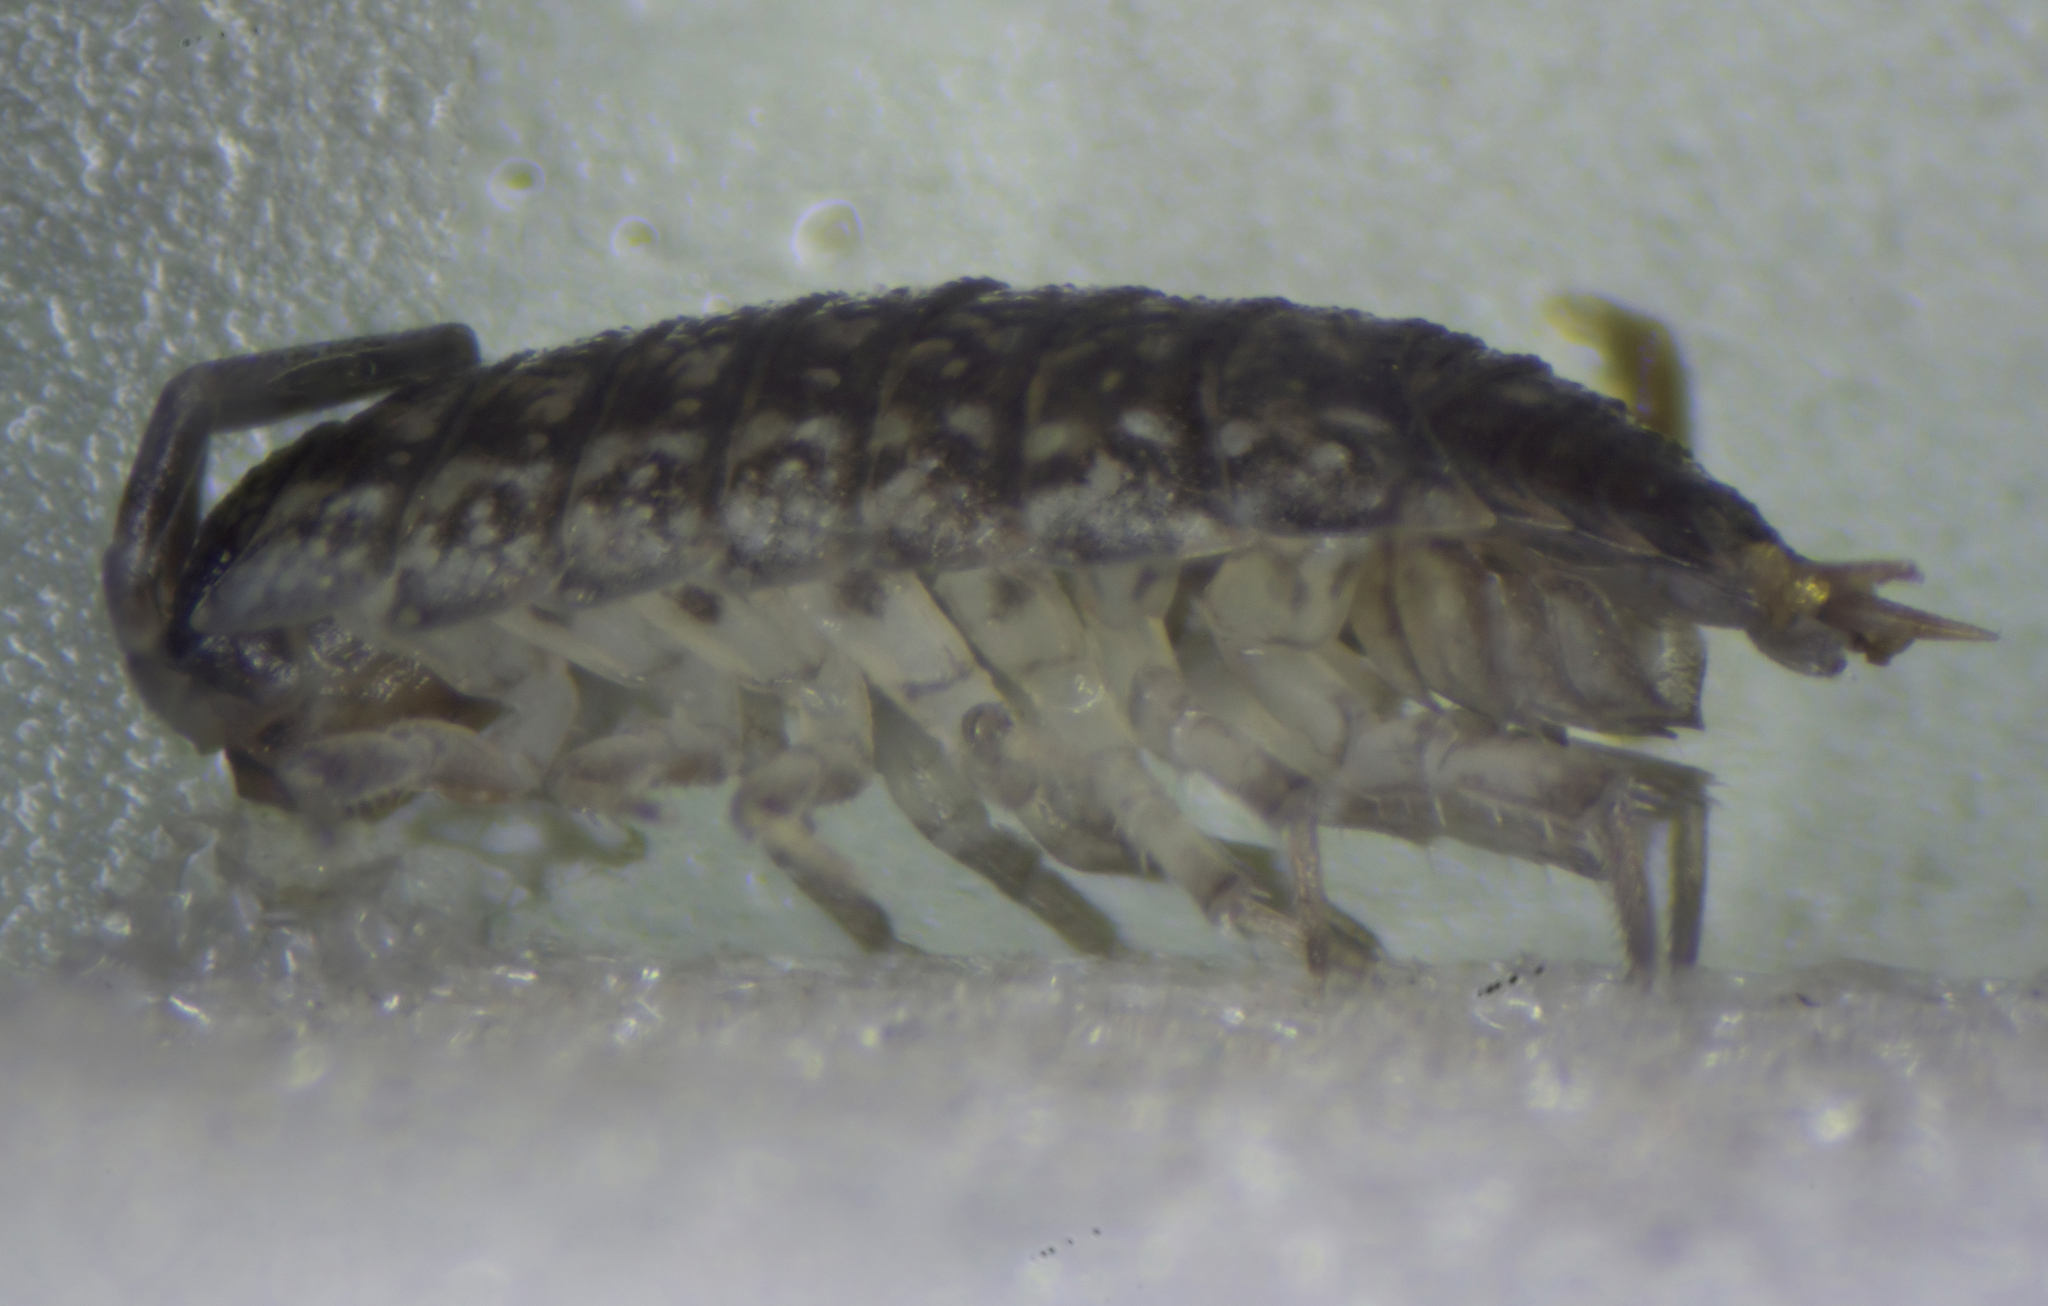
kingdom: Animalia
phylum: Arthropoda
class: Malacostraca
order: Isopoda
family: Porcellionidae
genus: Porcellio
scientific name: Porcellio achilleionensis
